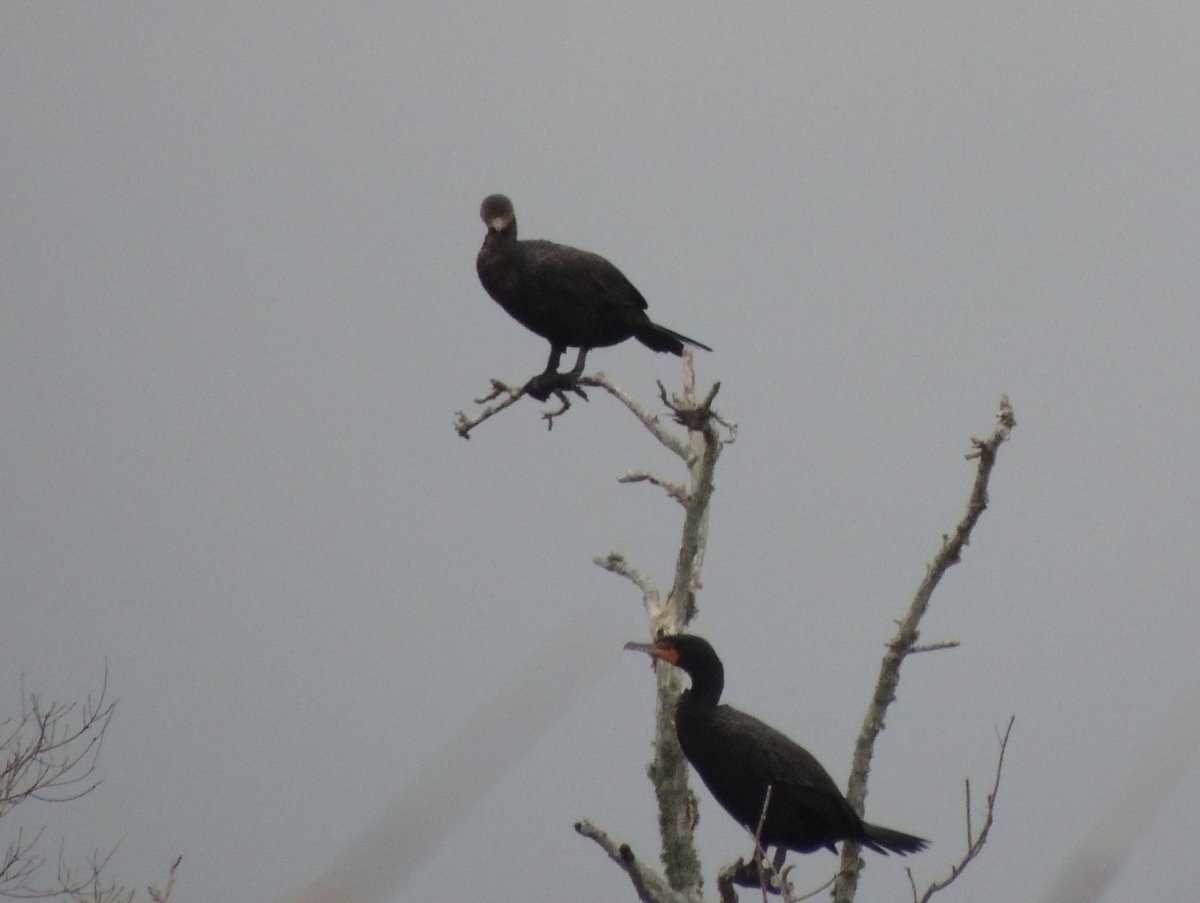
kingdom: Animalia
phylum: Chordata
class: Aves
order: Suliformes
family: Phalacrocoracidae
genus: Phalacrocorax
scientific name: Phalacrocorax auritus
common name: Double-crested cormorant
